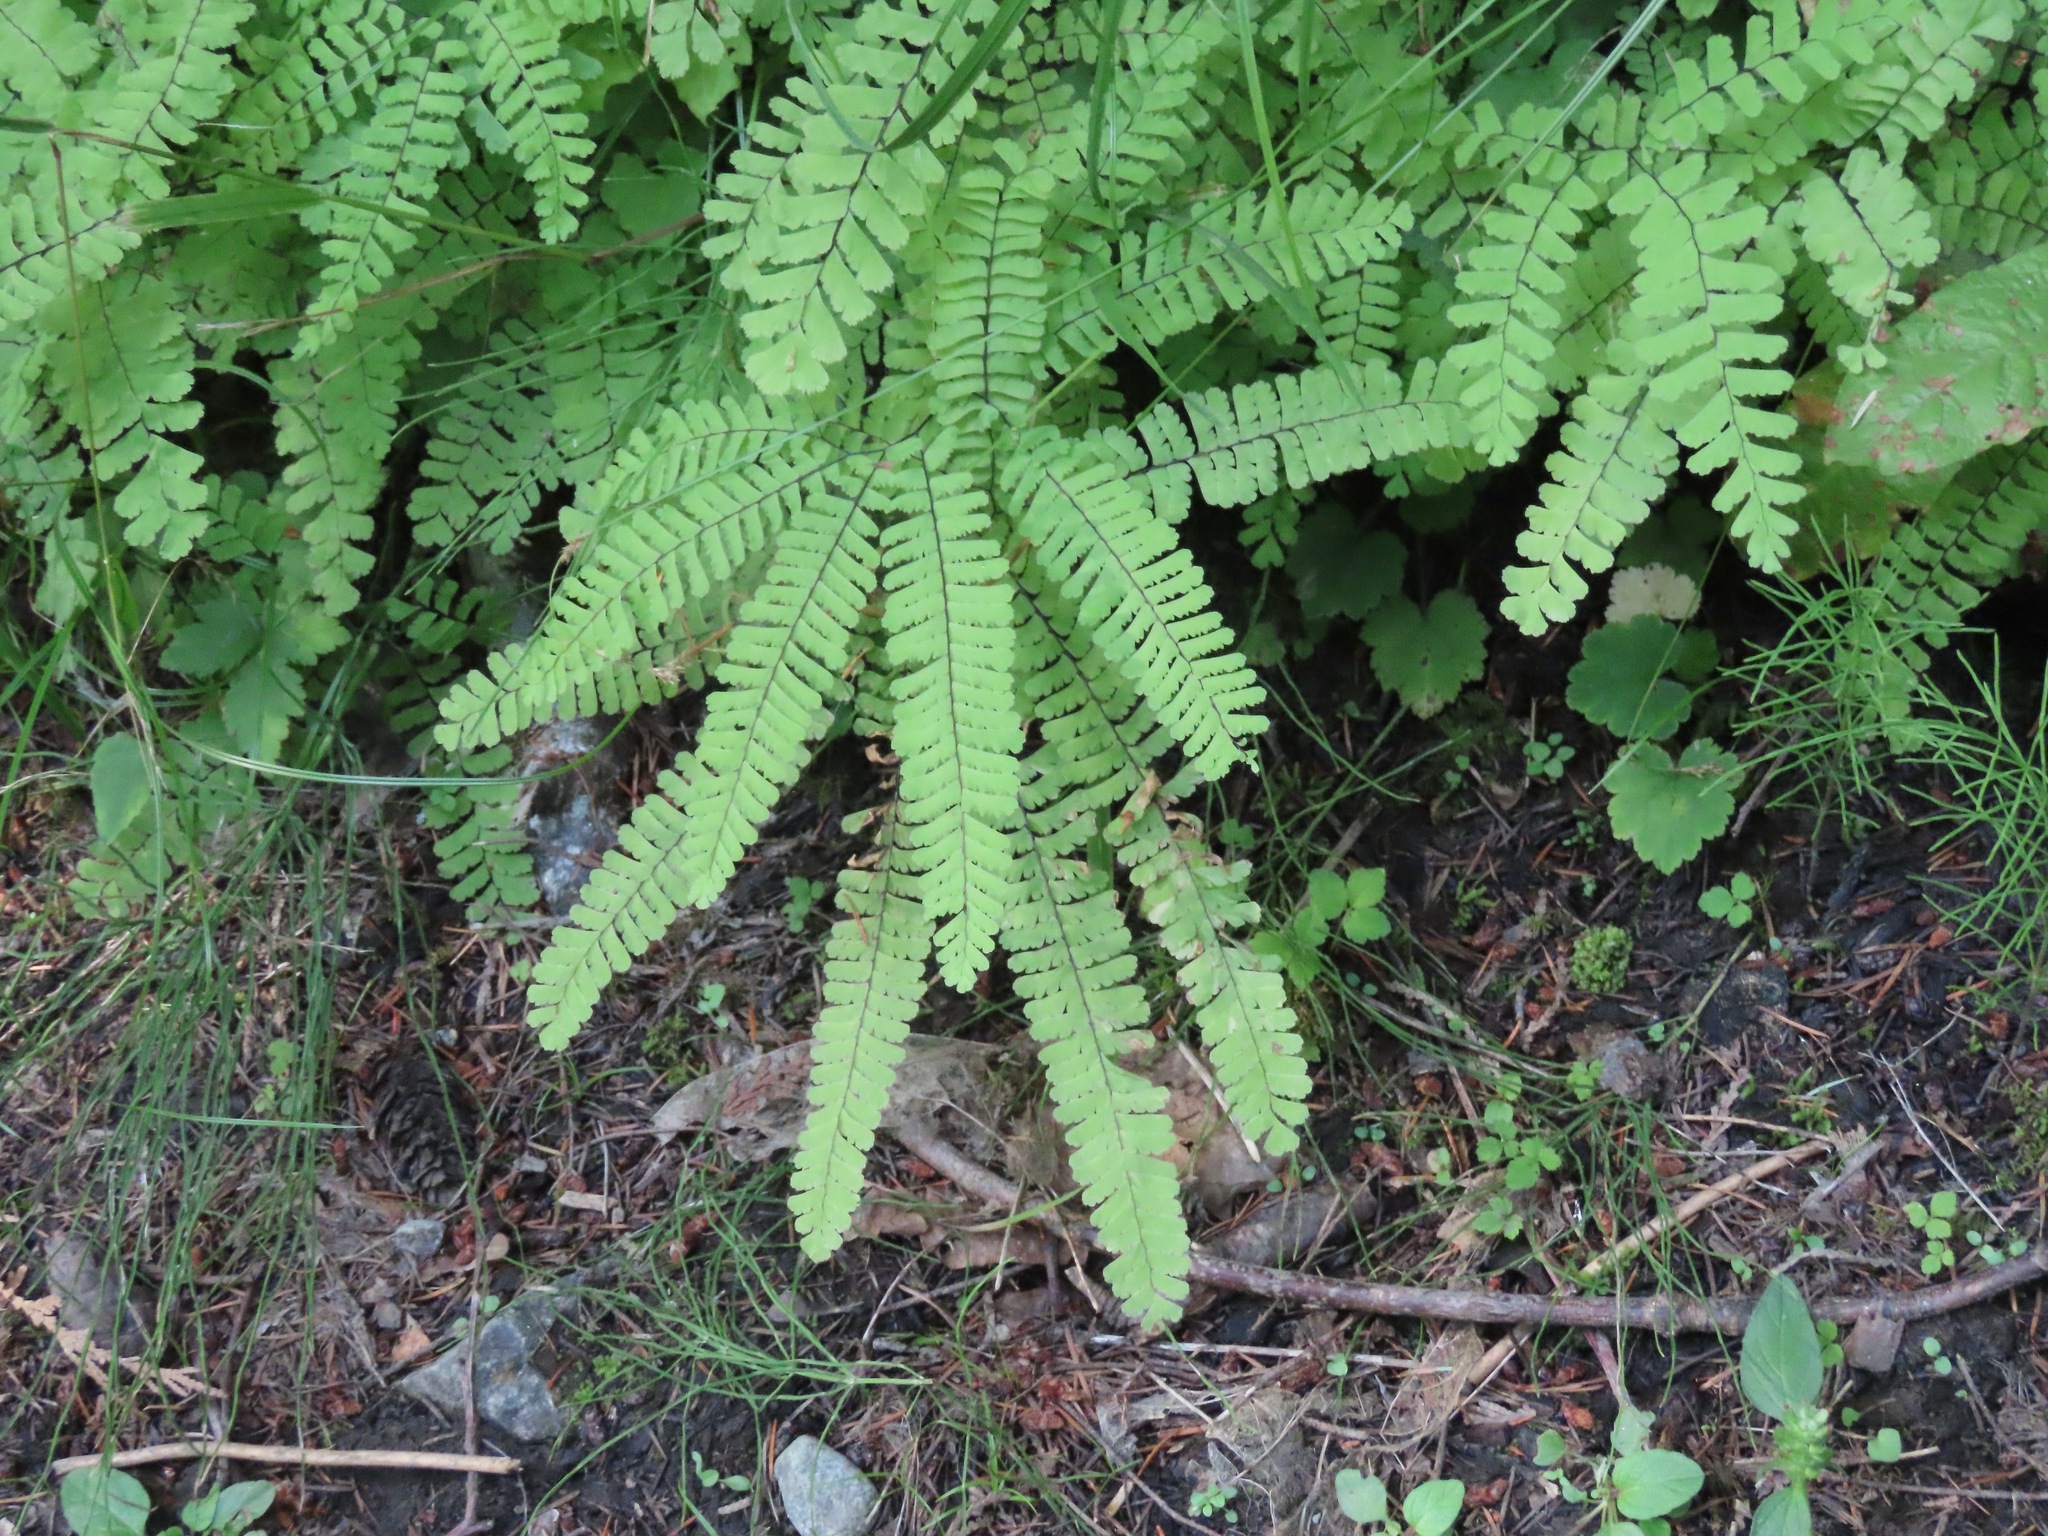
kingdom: Plantae
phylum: Tracheophyta
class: Polypodiopsida
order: Polypodiales
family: Pteridaceae
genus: Adiantum
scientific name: Adiantum aleuticum
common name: Aleutian maidenhair fern
